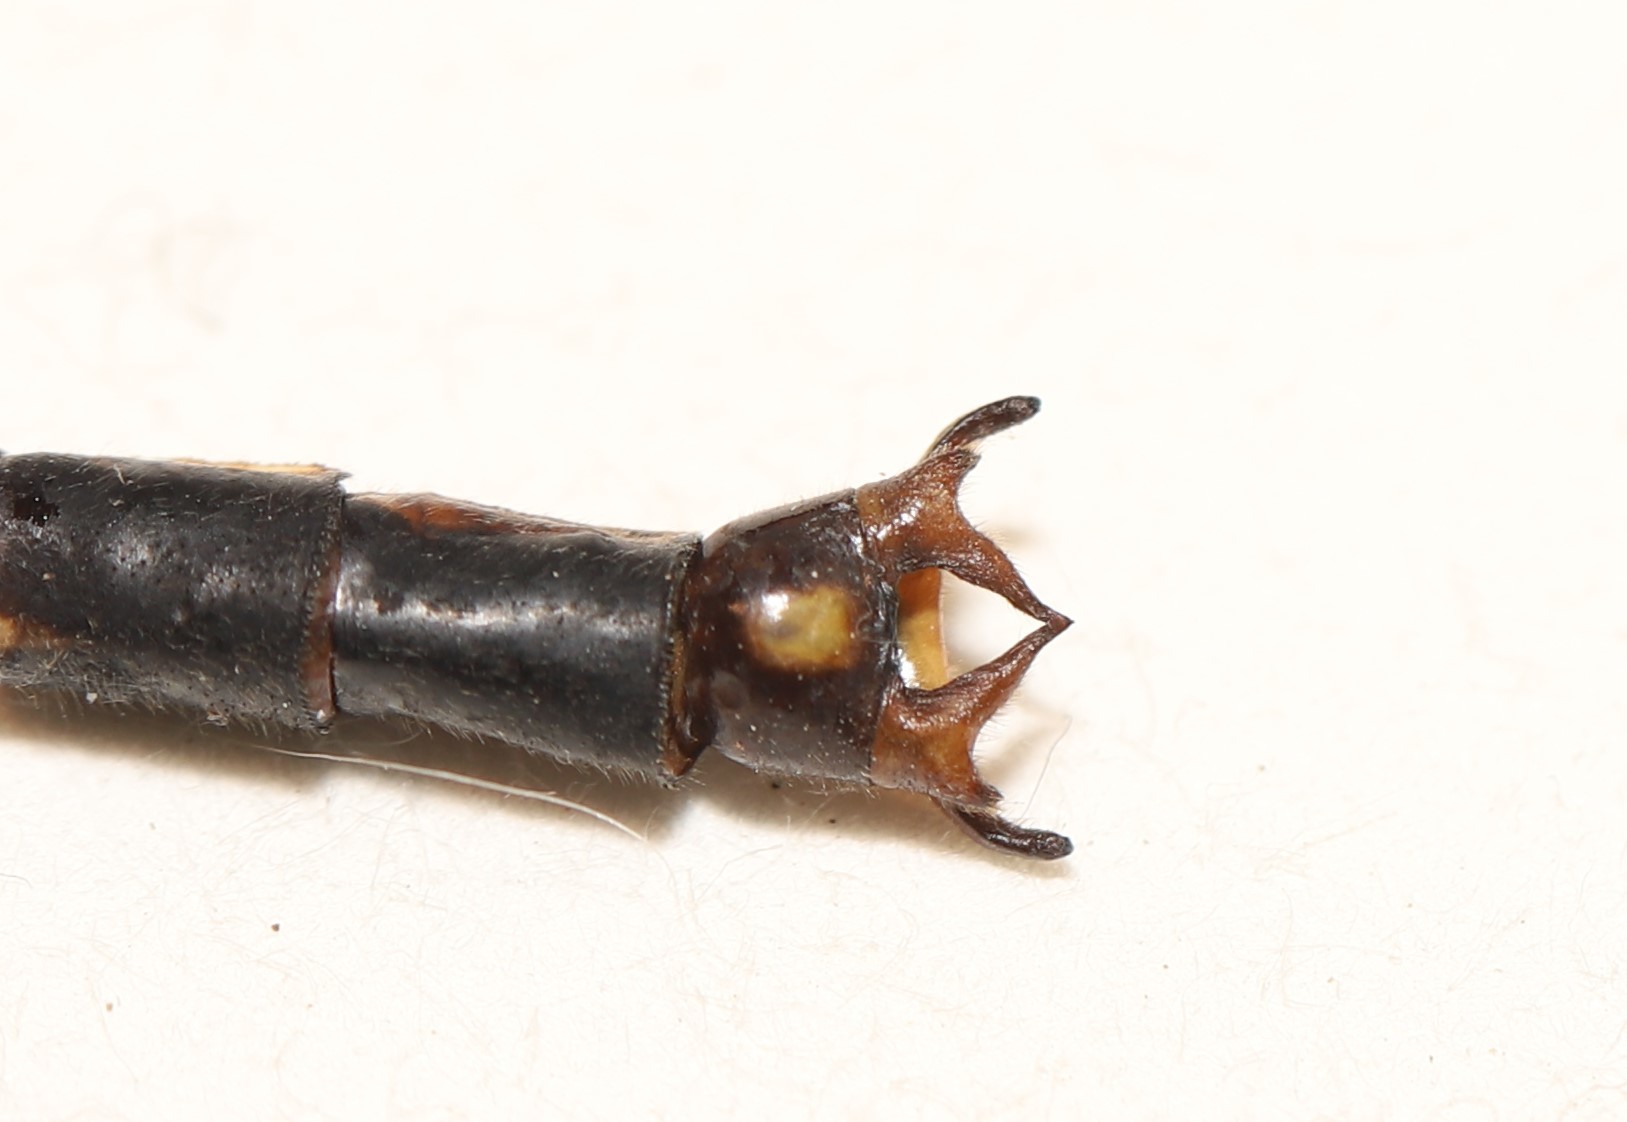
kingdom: Animalia
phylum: Arthropoda
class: Insecta
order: Odonata
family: Gomphidae
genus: Arigomphus
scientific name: Arigomphus cornutus
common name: Horned clubtail
